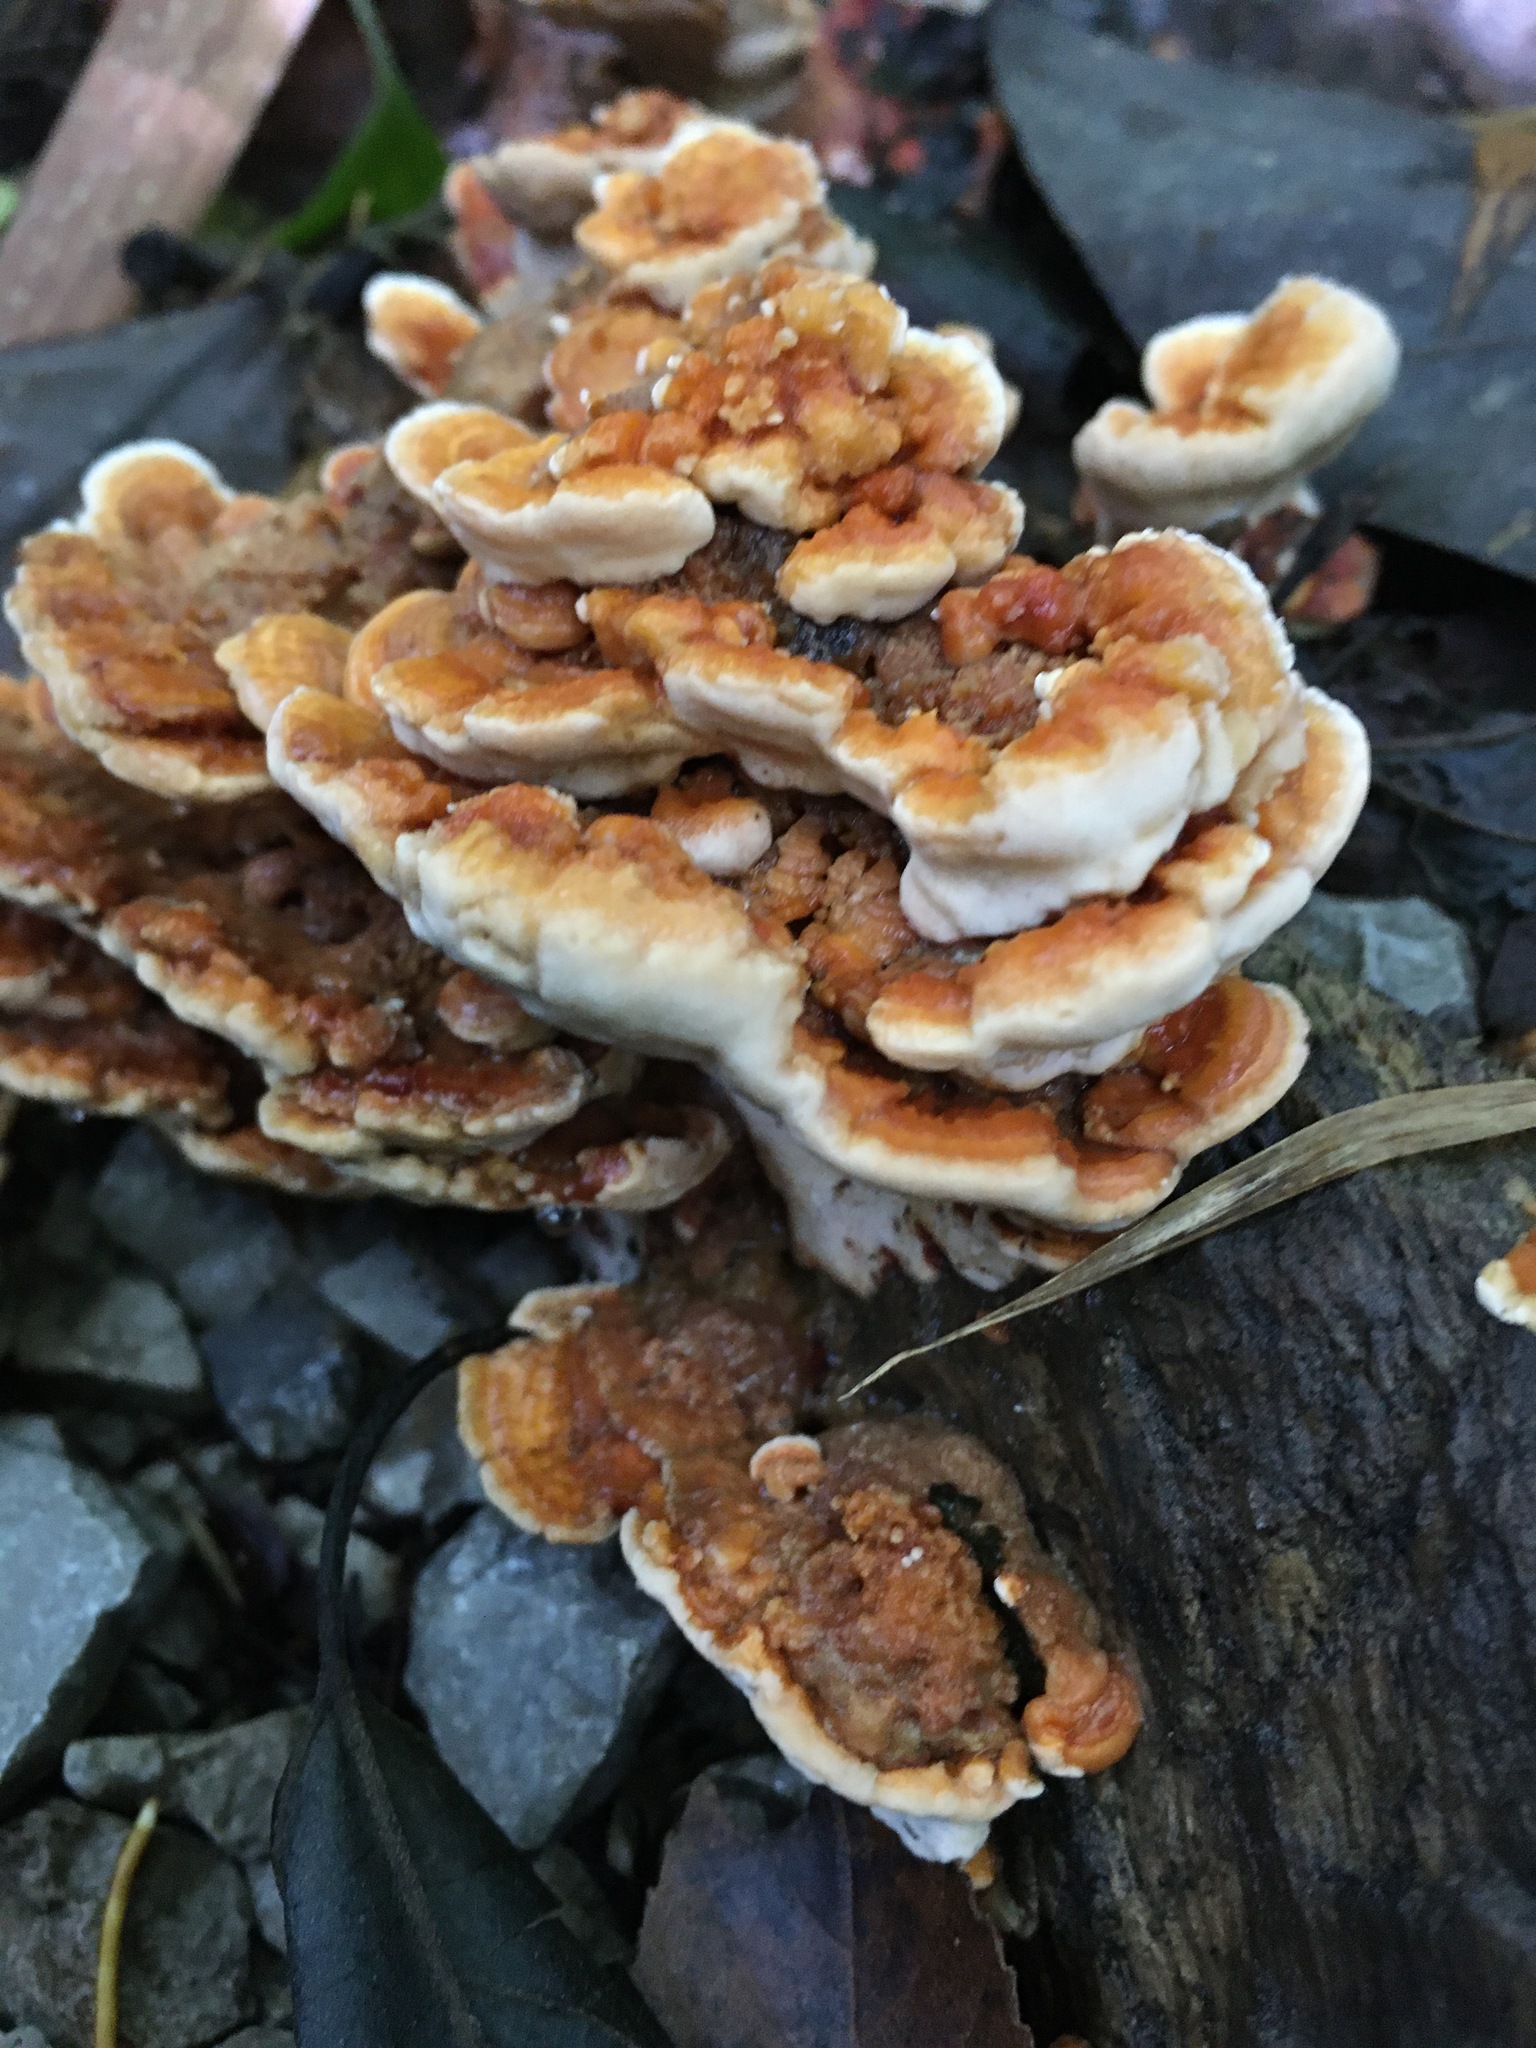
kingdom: Fungi
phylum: Basidiomycota
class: Agaricomycetes
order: Polyporales
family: Polyporaceae
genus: Trametes
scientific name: Trametes ochracea
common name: Ochre bracket
